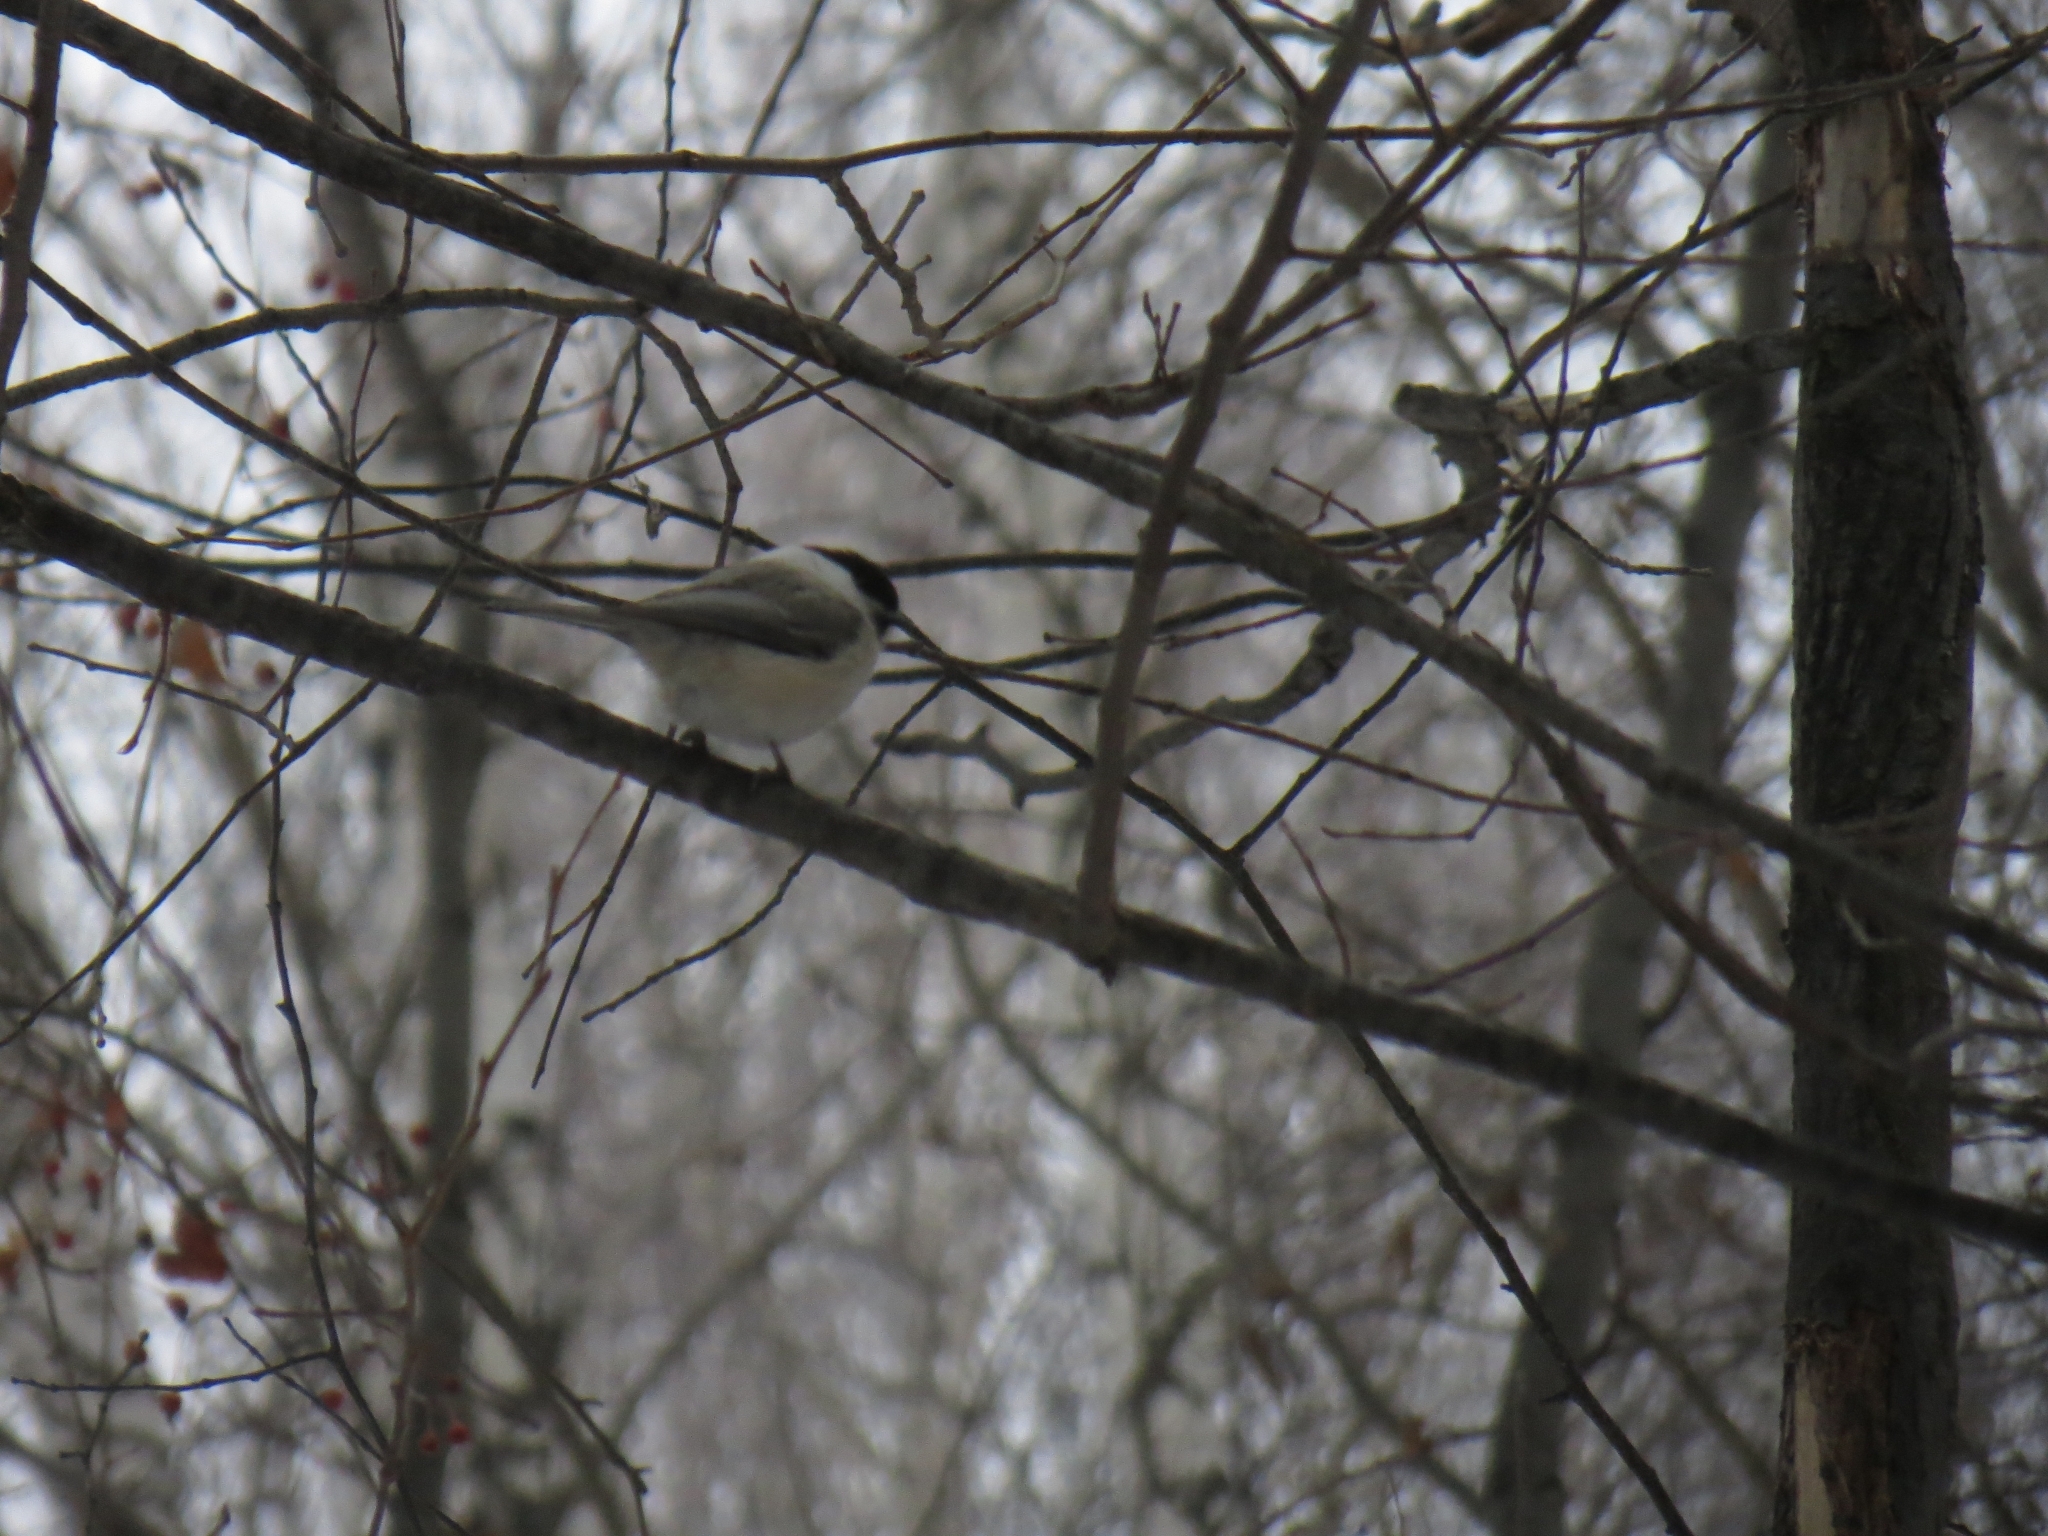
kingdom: Animalia
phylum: Chordata
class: Aves
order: Passeriformes
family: Paridae
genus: Poecile
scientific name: Poecile montanus
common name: Willow tit
